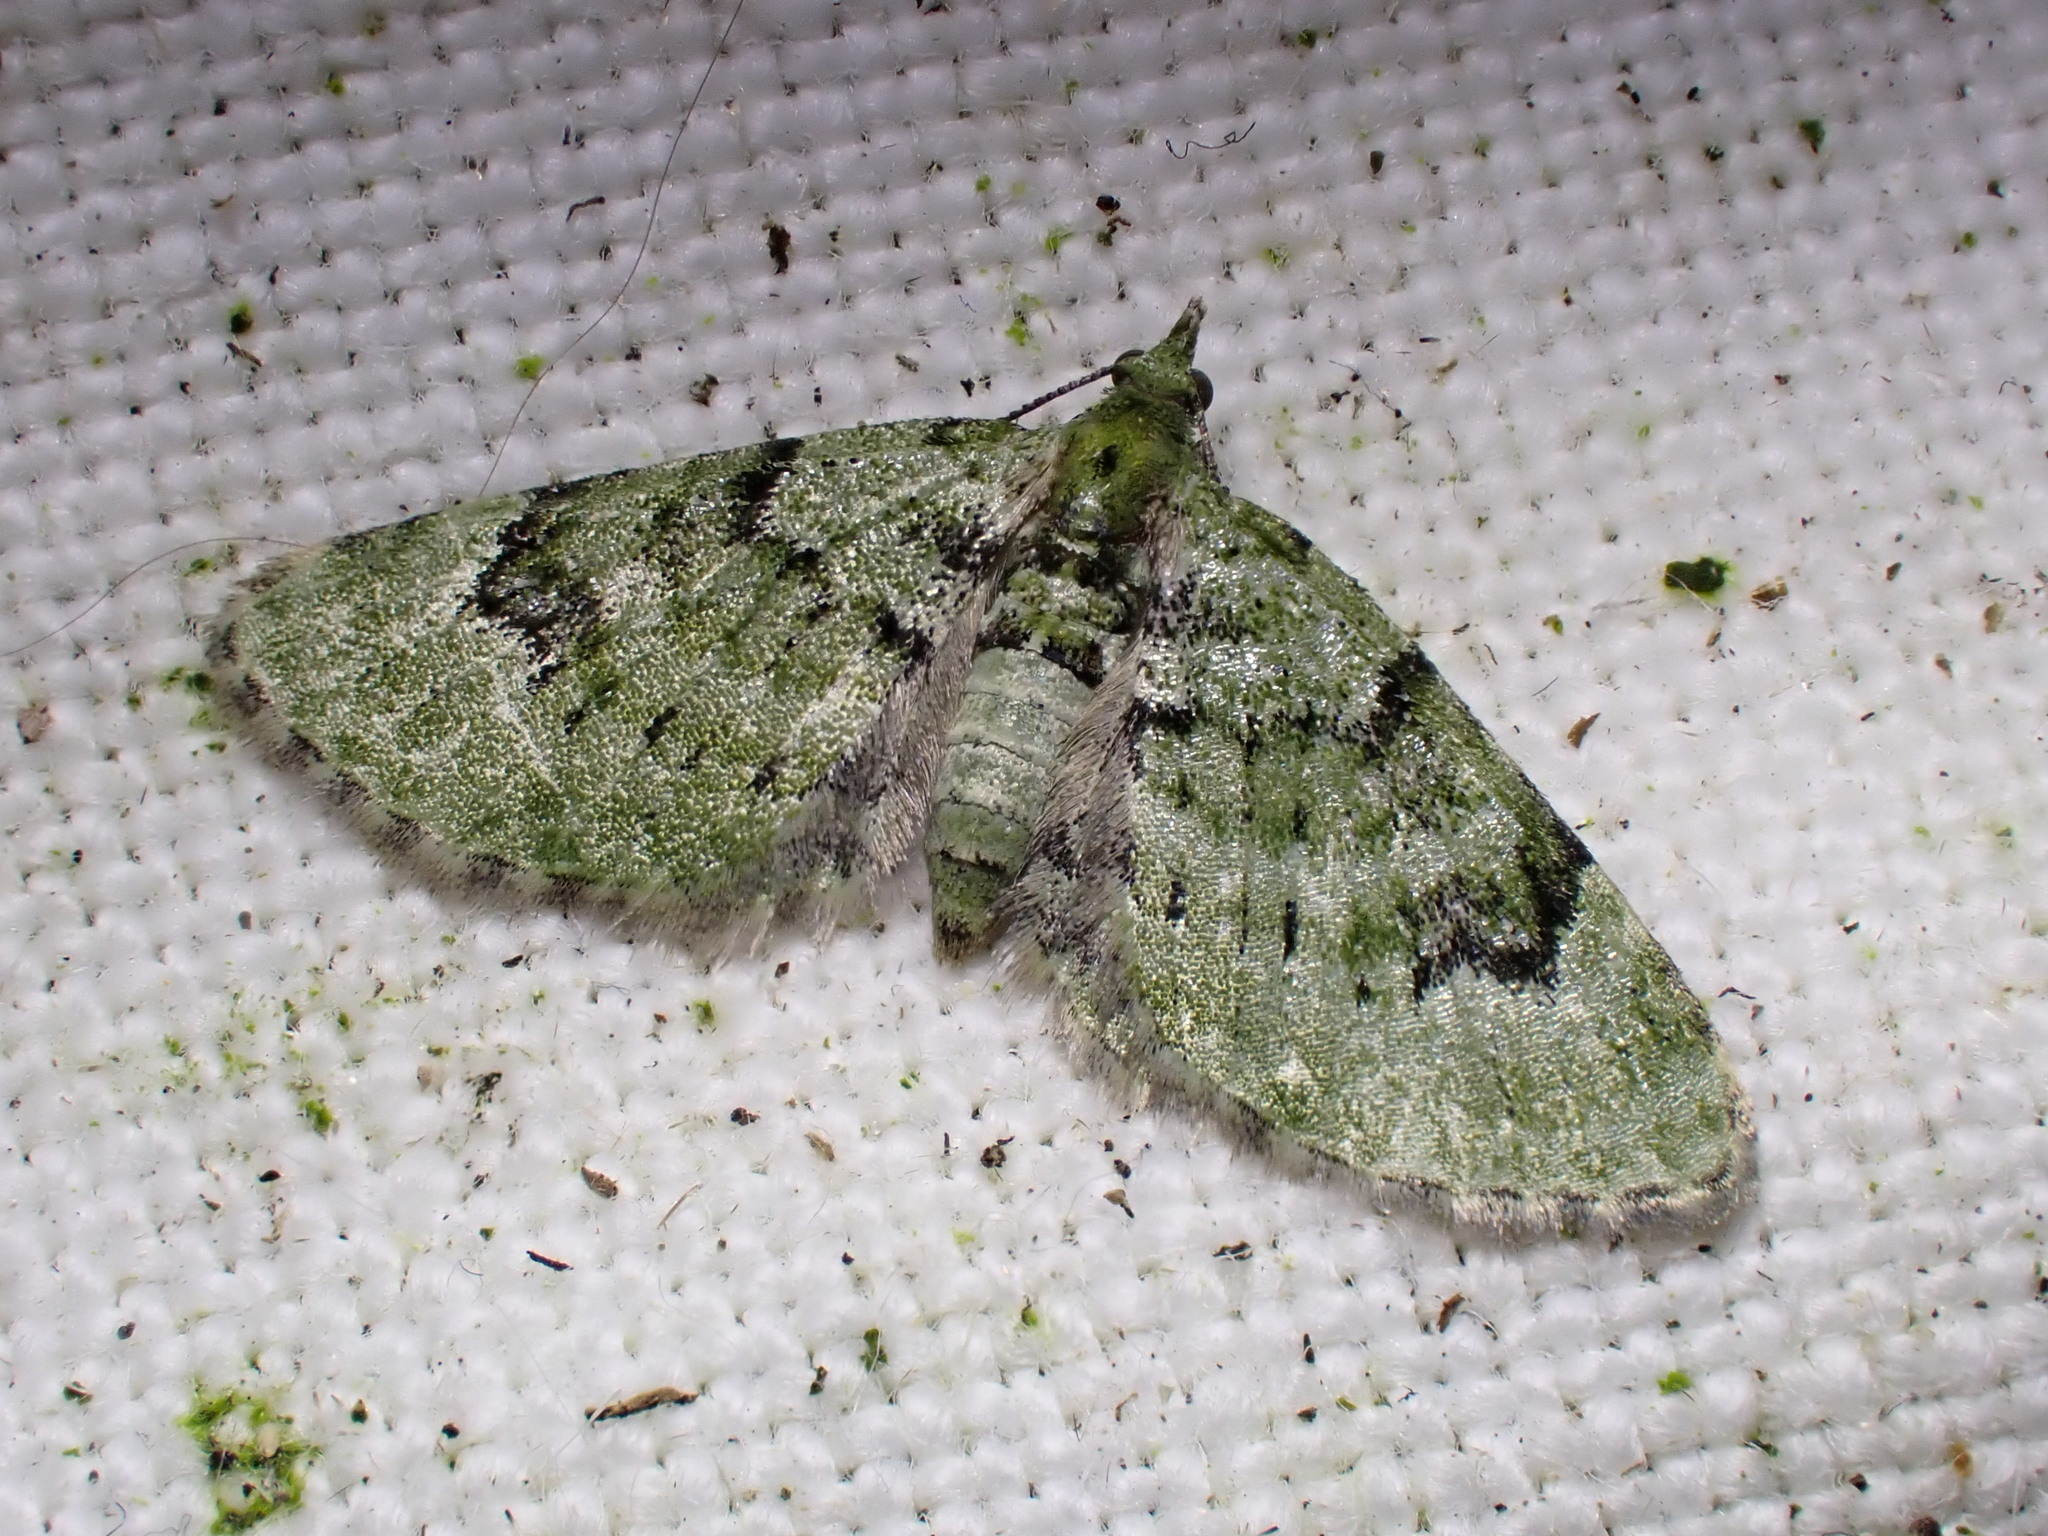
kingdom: Animalia
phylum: Arthropoda
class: Insecta
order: Lepidoptera
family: Geometridae
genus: Chloroclystis
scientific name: Chloroclystis v-ata
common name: V-pug
